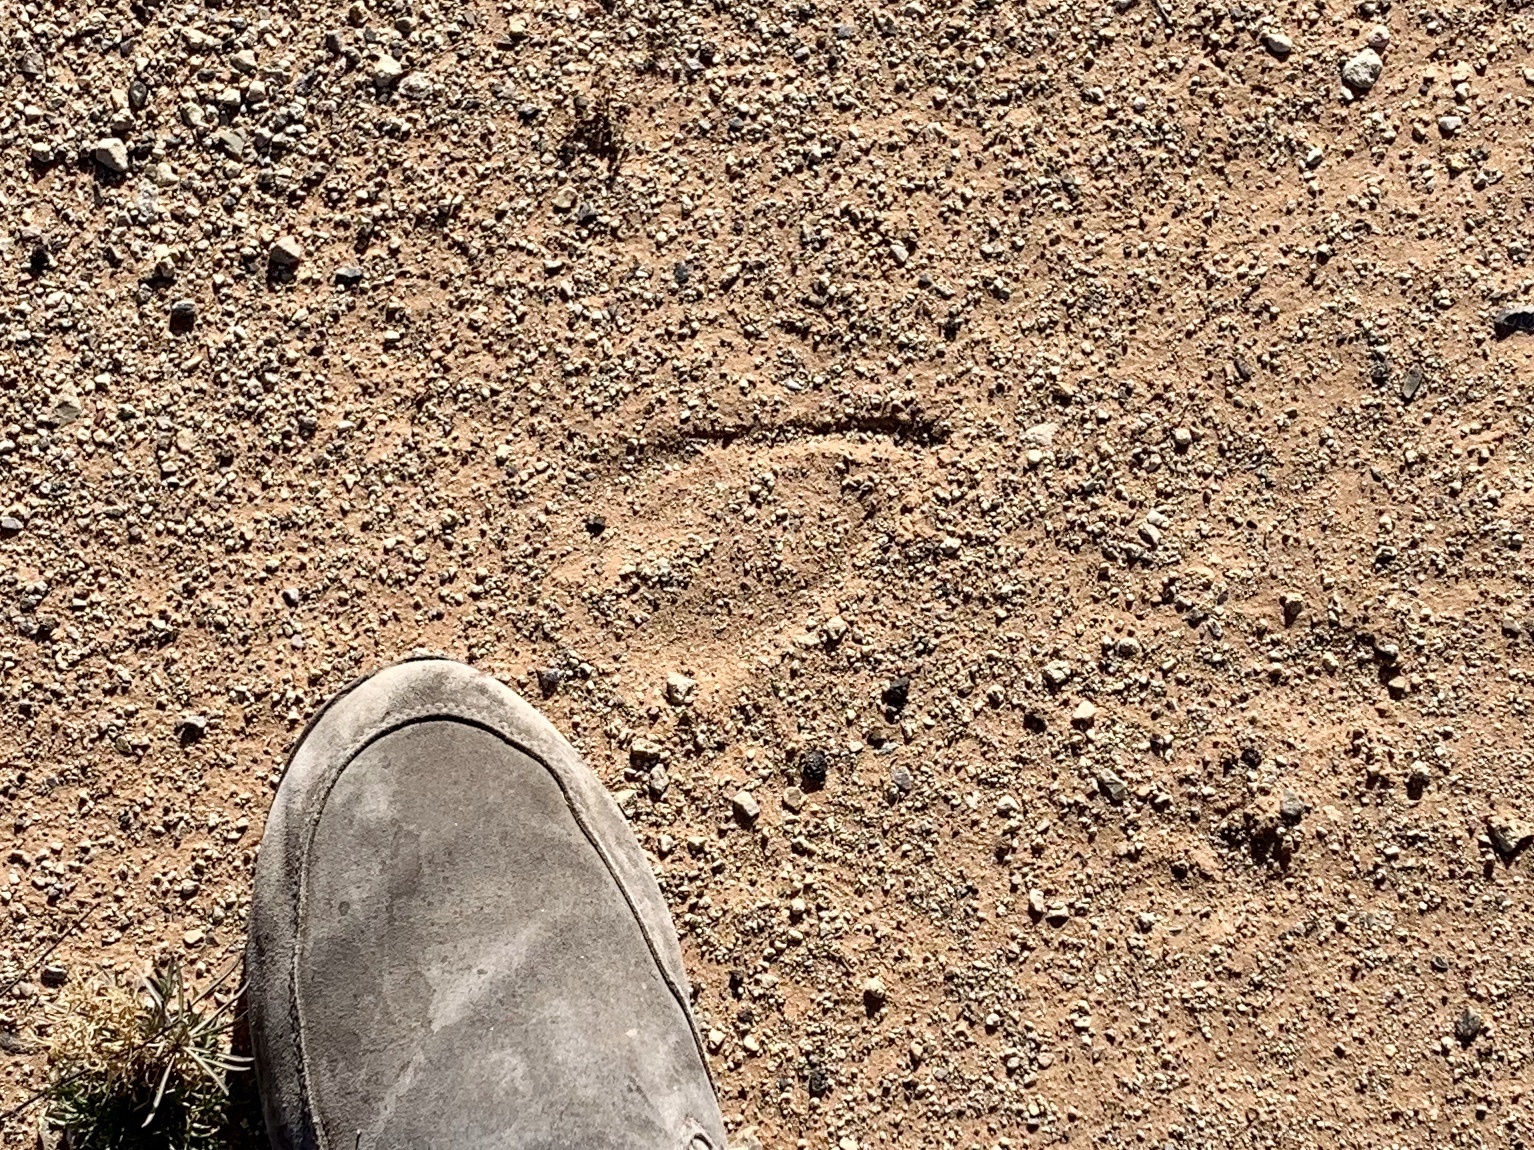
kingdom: Animalia
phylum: Chordata
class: Mammalia
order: Artiodactyla
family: Bovidae
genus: Oryx
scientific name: Oryx gazella
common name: Gemsbok
